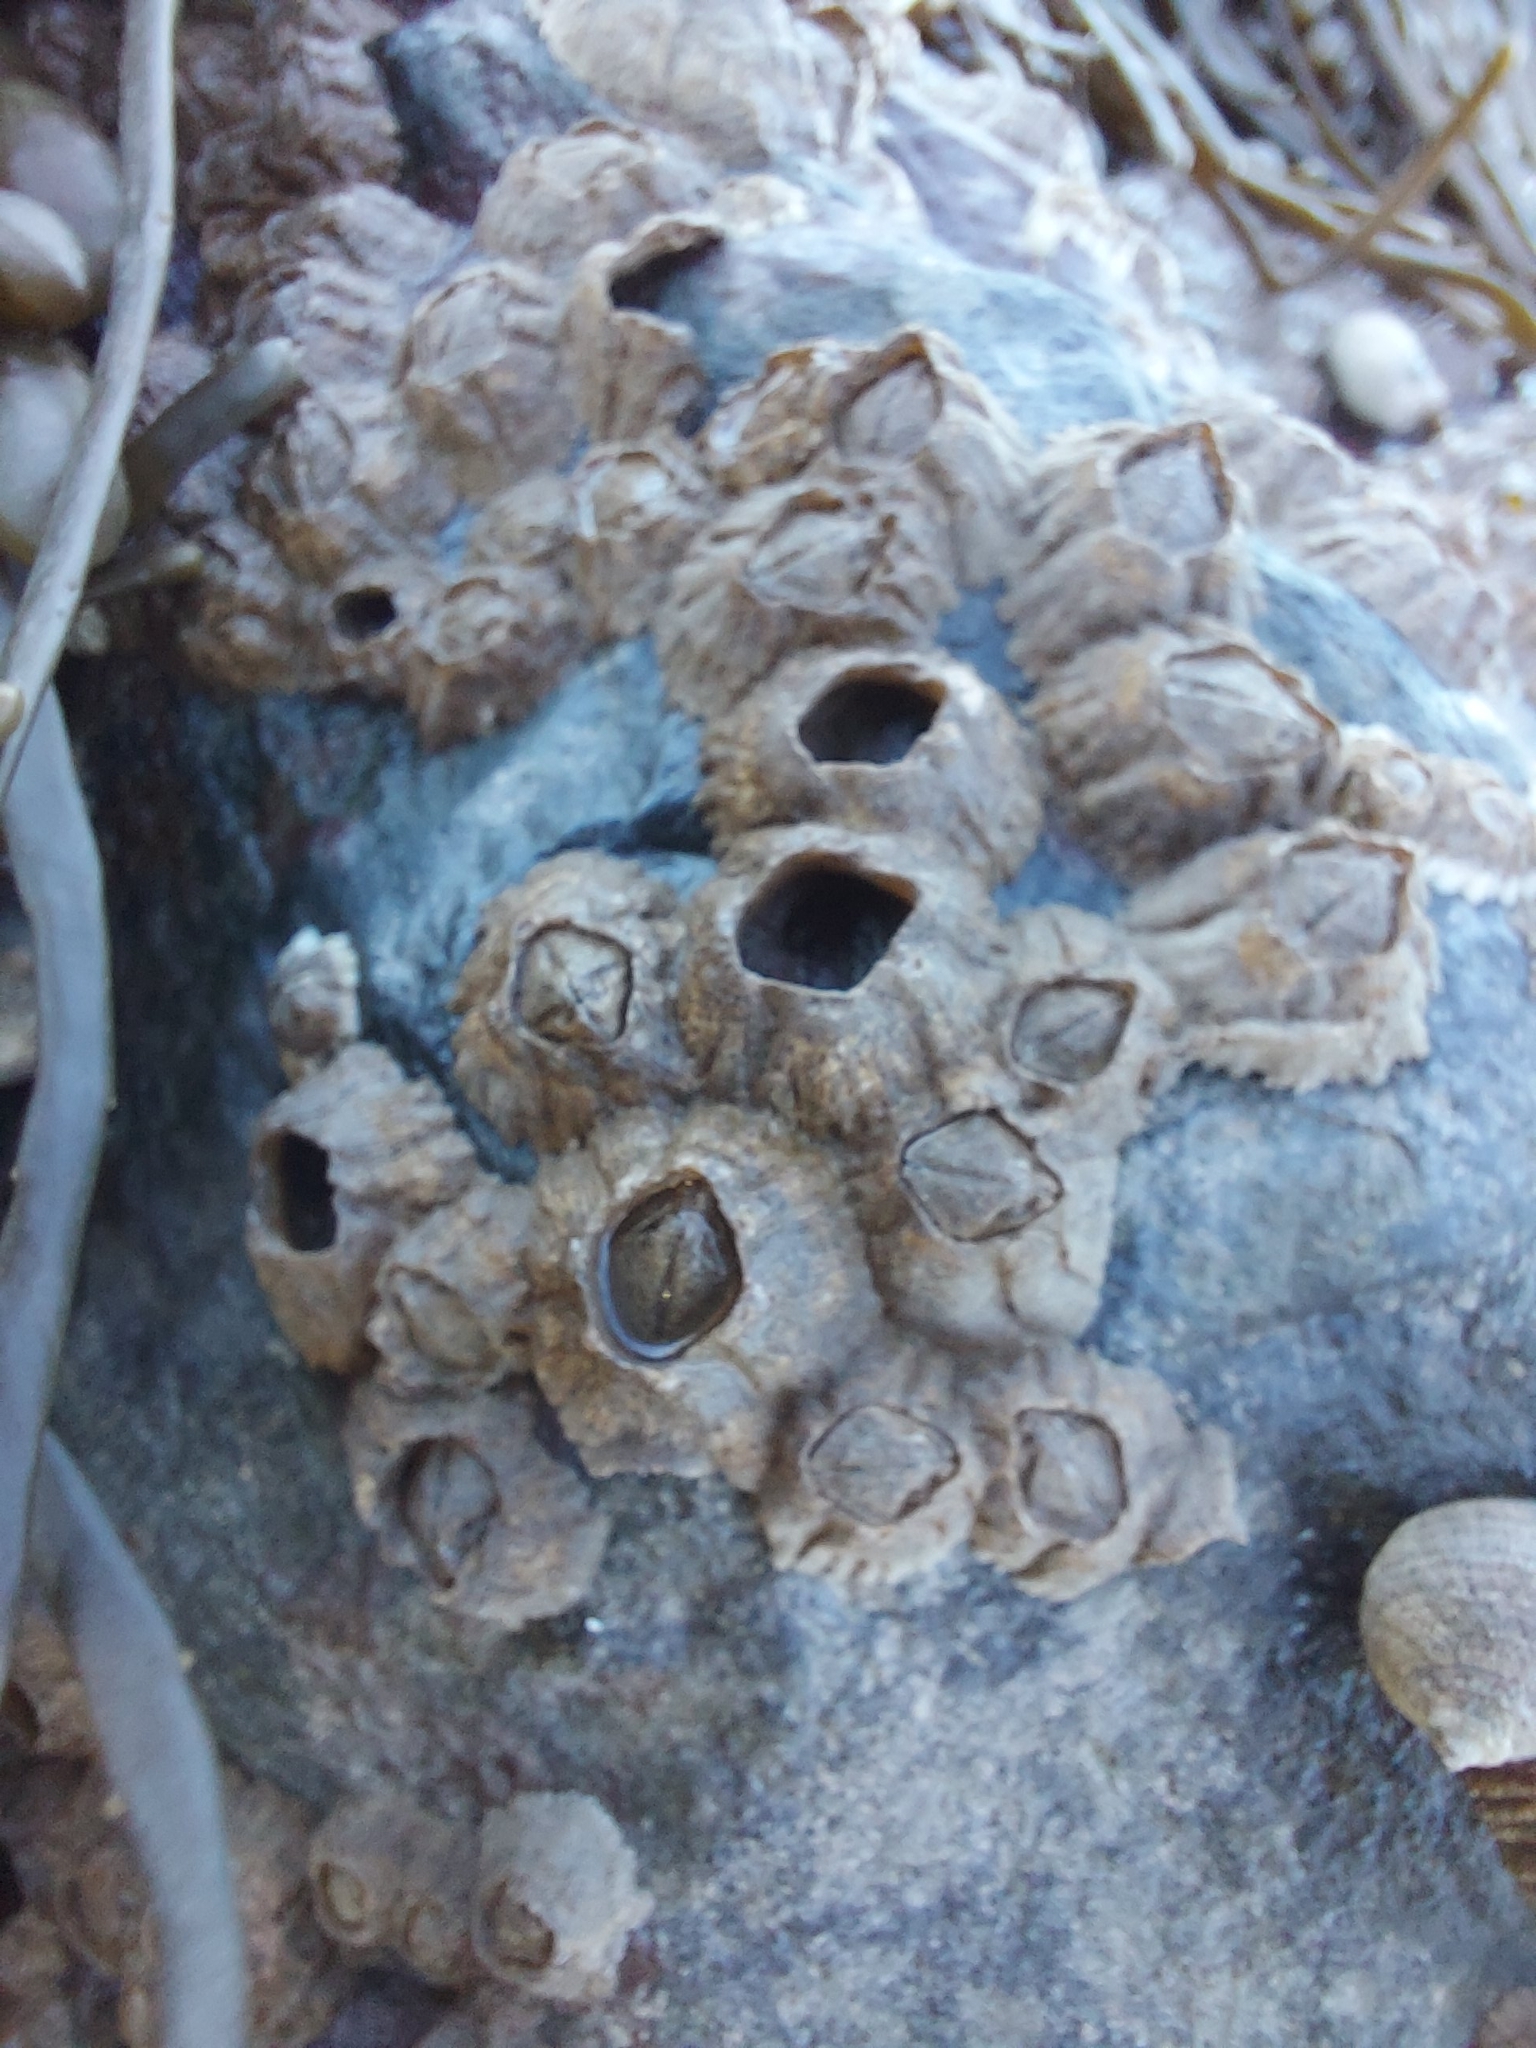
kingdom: Animalia
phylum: Arthropoda
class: Maxillopoda
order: Sessilia
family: Archaeobalanidae
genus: Semibalanus
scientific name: Semibalanus balanoides
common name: Acorn barnacle
